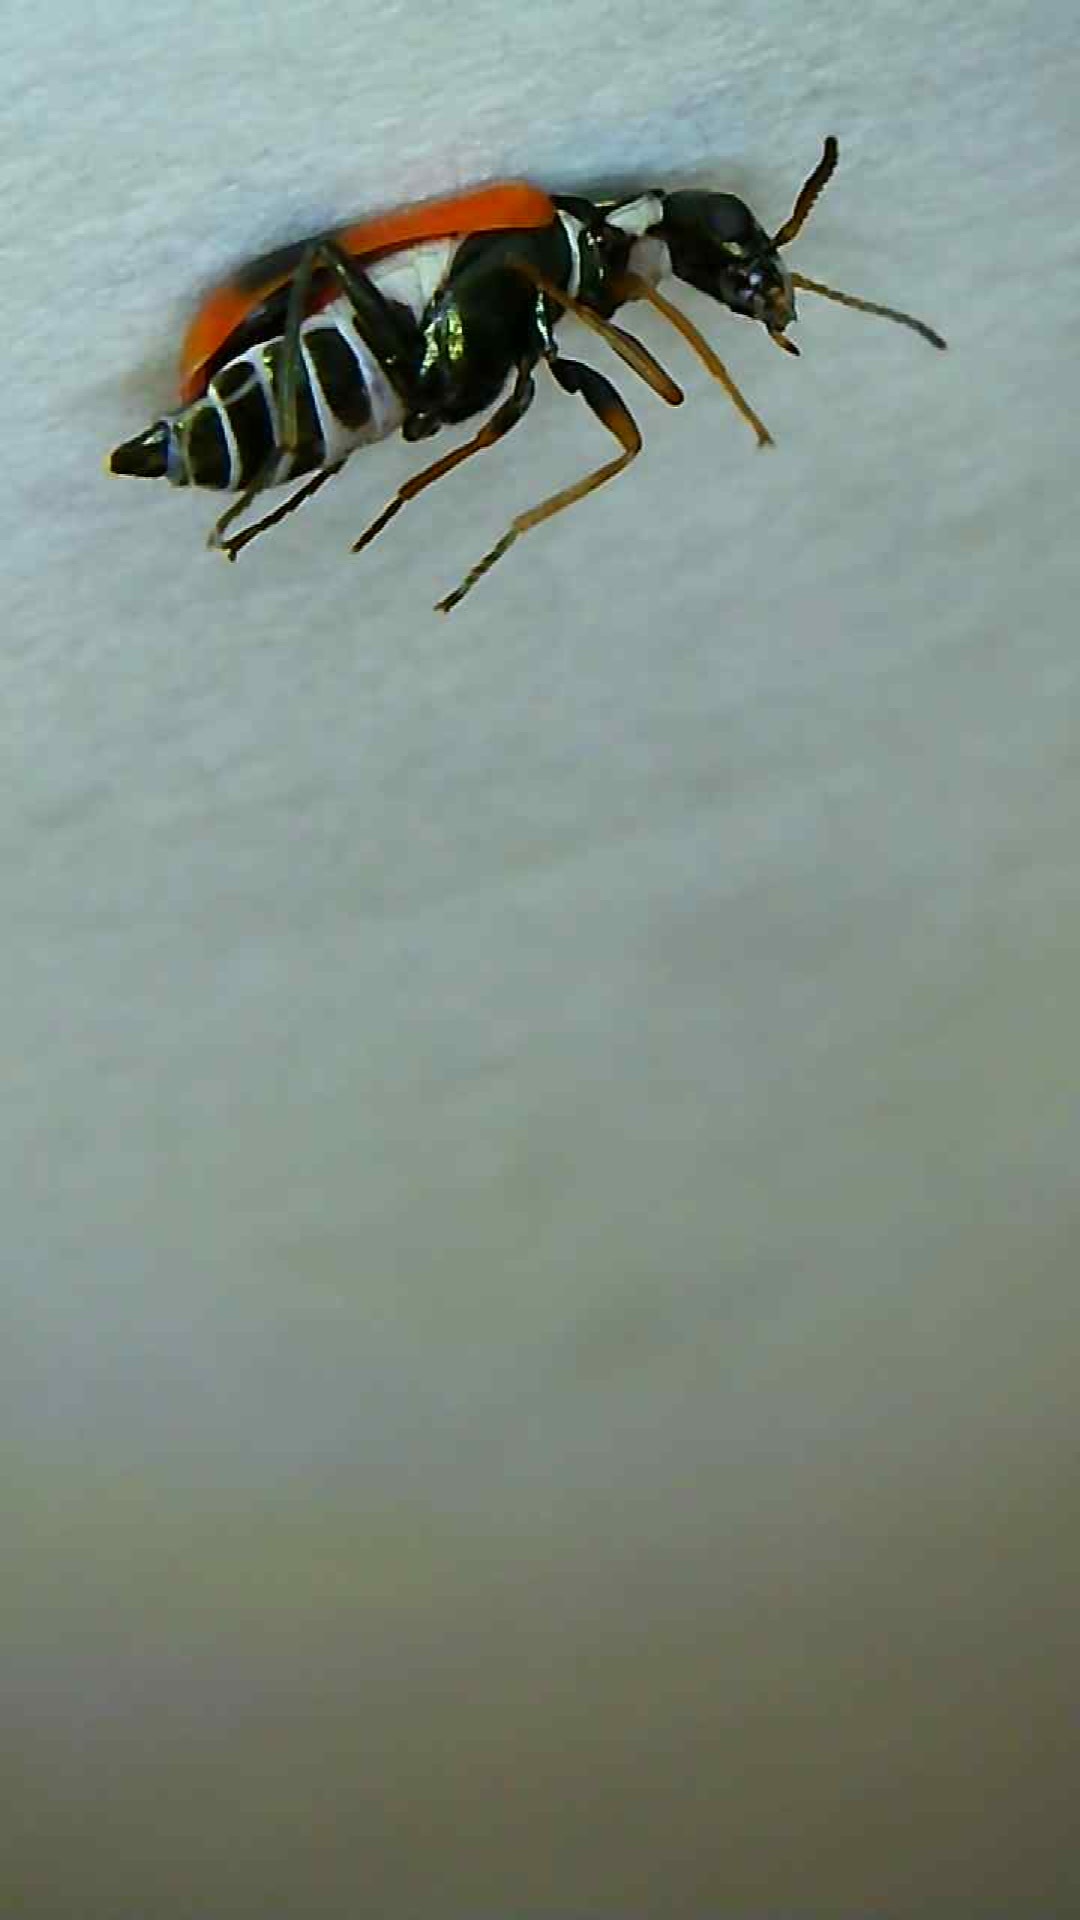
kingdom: Animalia
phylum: Arthropoda
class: Insecta
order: Coleoptera
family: Melyridae
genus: Anthocomus
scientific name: Anthocomus equestris
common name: Black-banded soft-winged flower beetle
